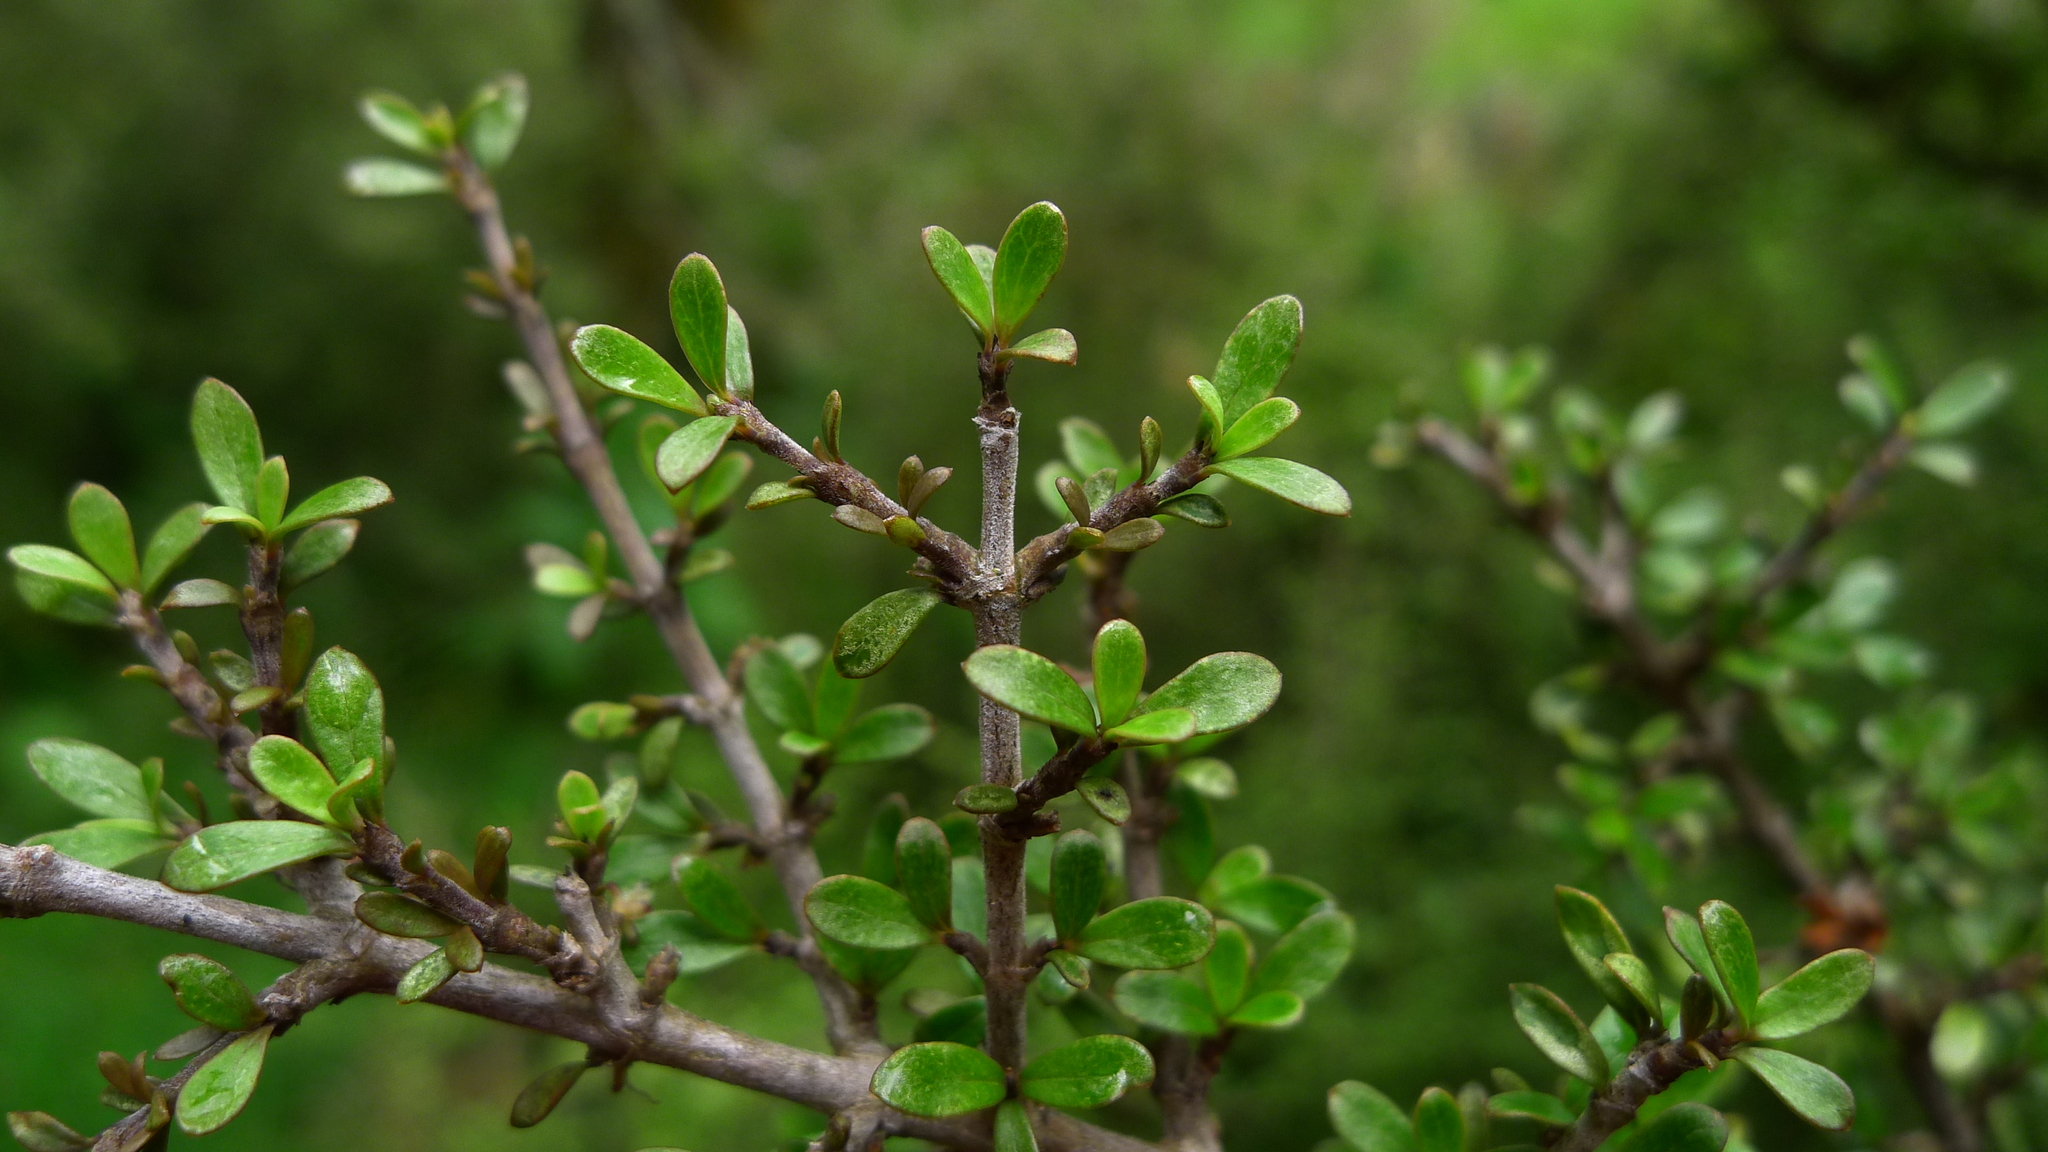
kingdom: Plantae
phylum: Tracheophyta
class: Magnoliopsida
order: Gentianales
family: Rubiaceae
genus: Coprosma
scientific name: Coprosma dumosa
